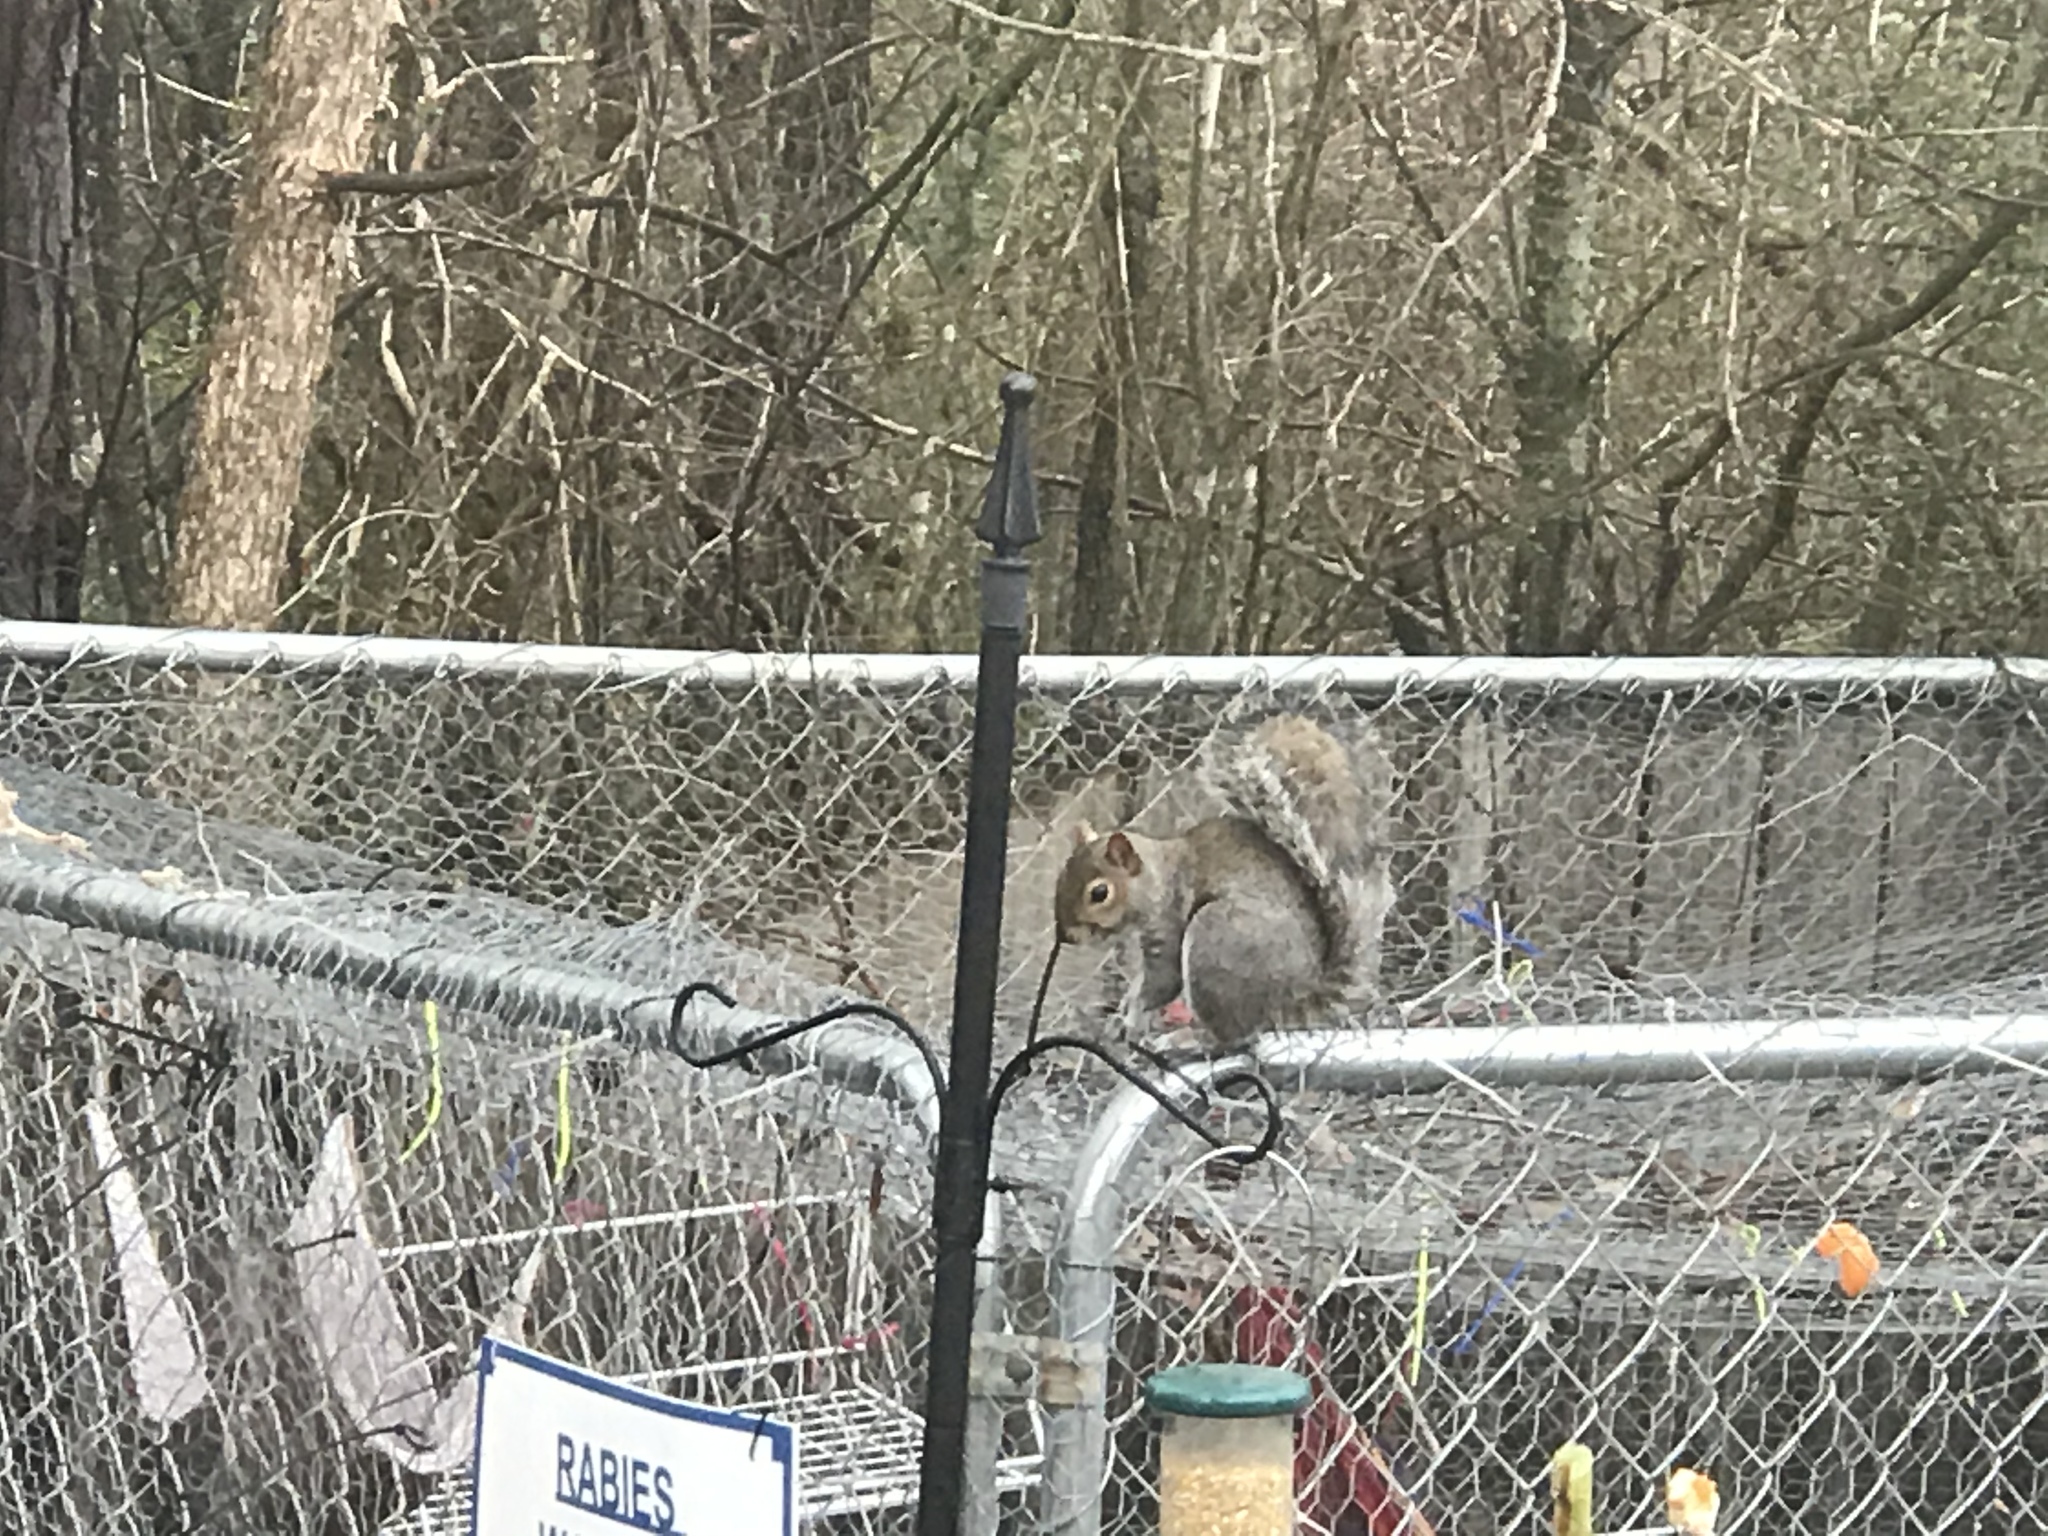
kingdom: Animalia
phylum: Chordata
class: Mammalia
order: Rodentia
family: Sciuridae
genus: Sciurus
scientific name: Sciurus carolinensis
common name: Eastern gray squirrel
